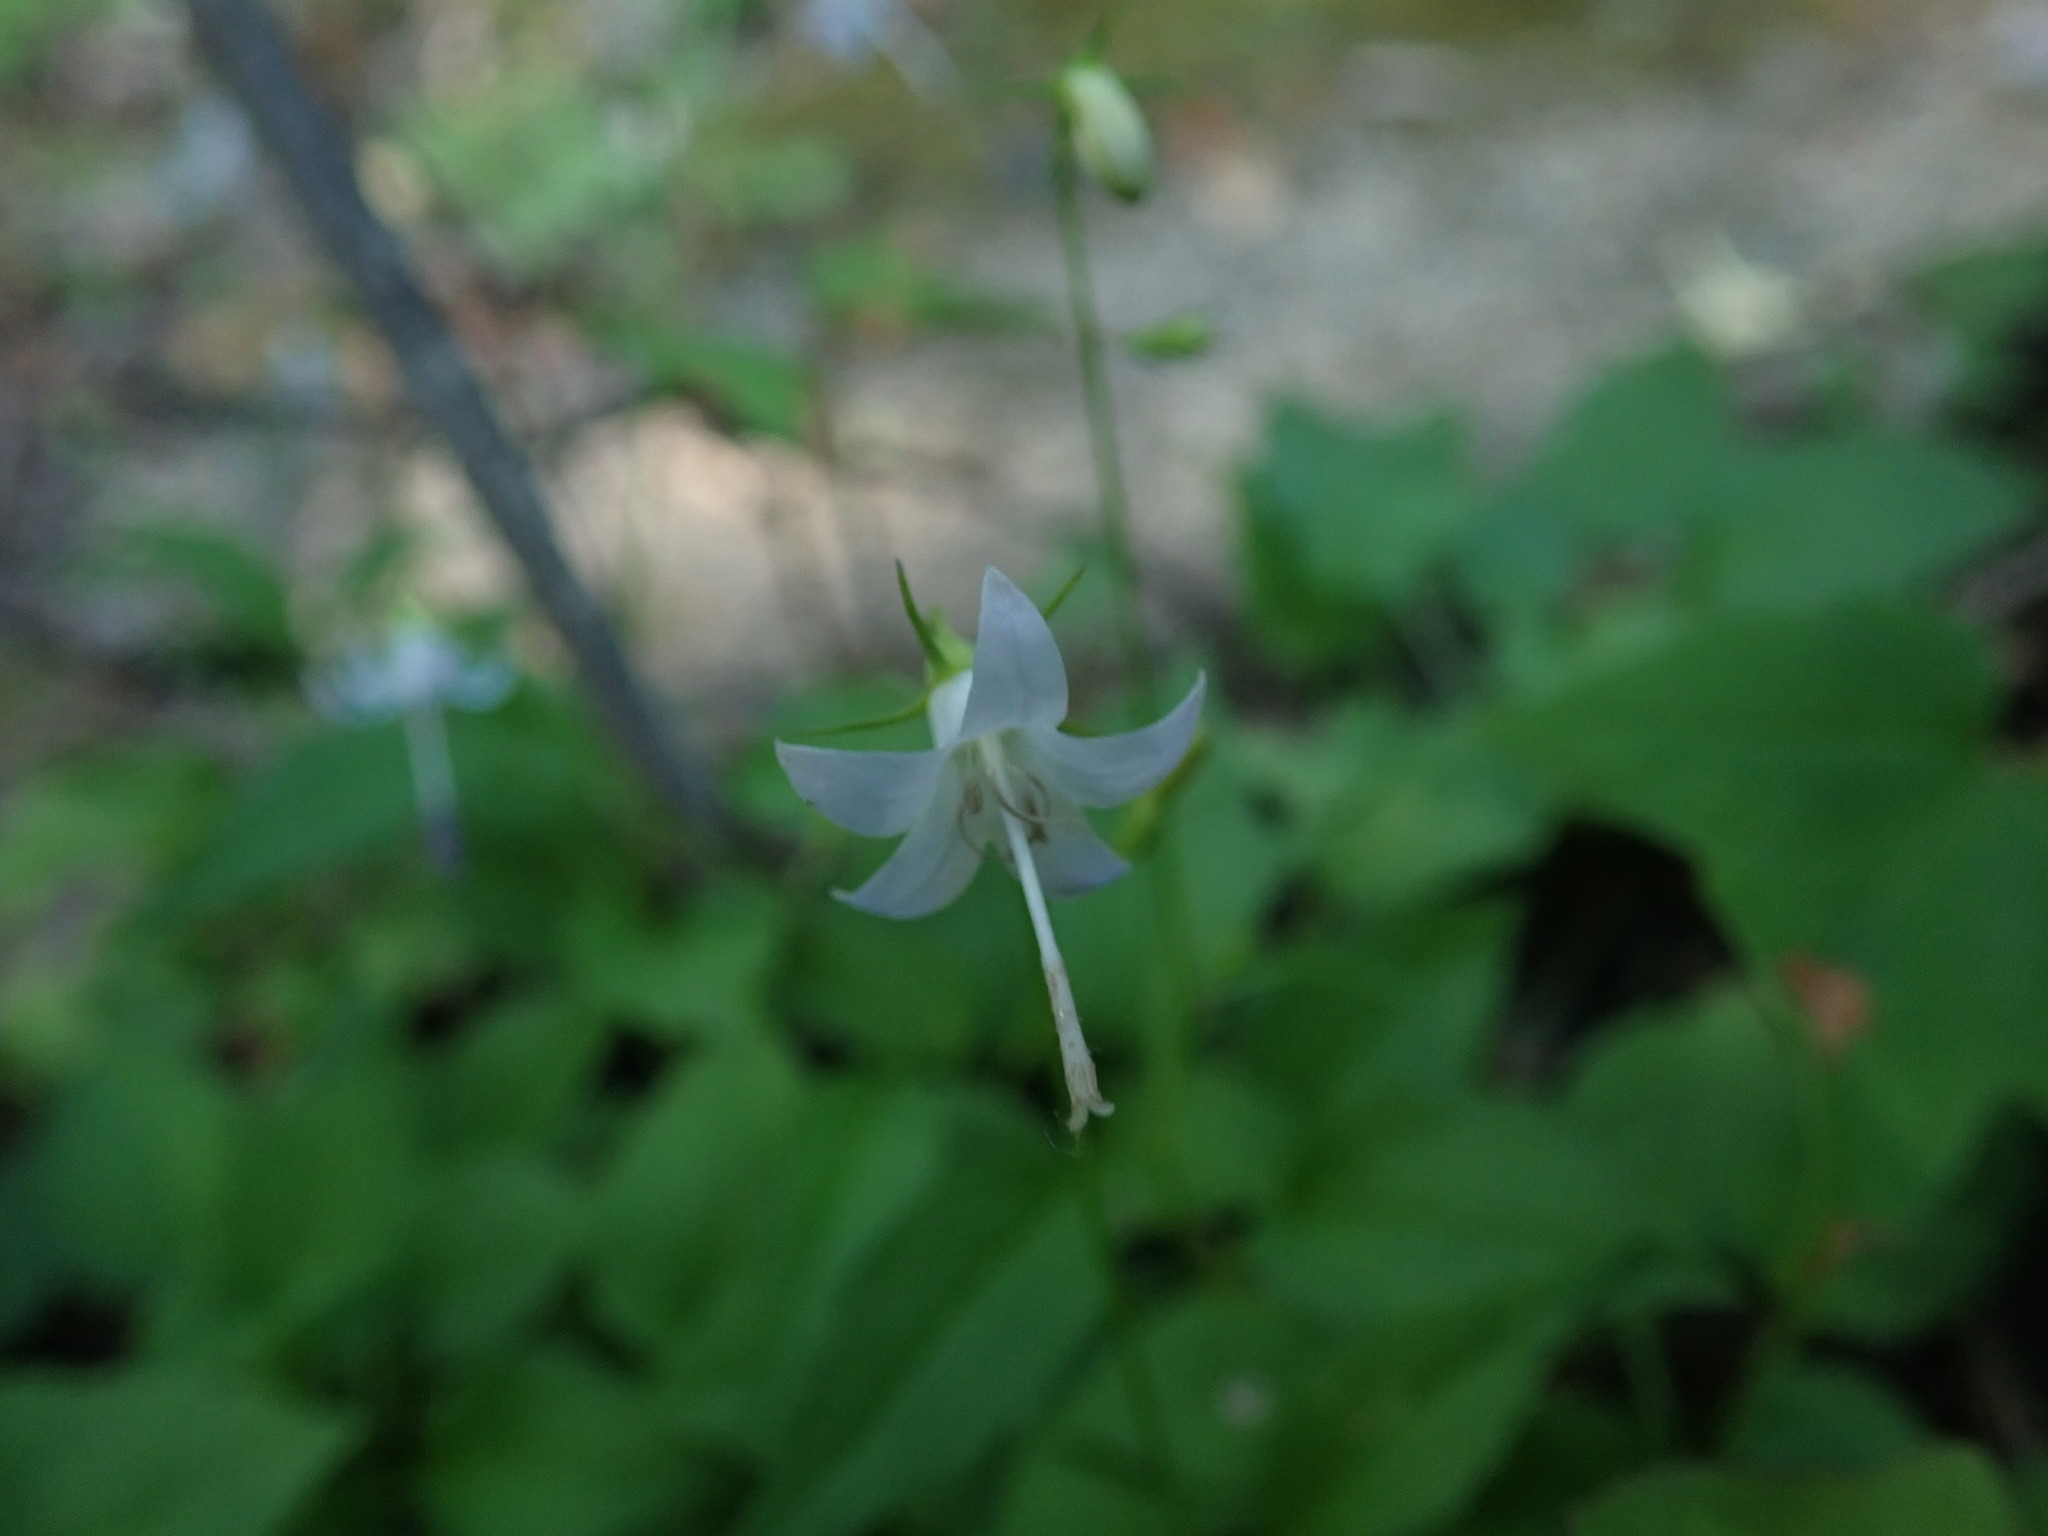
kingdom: Plantae
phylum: Tracheophyta
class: Magnoliopsida
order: Asterales
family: Campanulaceae
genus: Campanula
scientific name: Campanula scouleri
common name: Scouler's harebell
